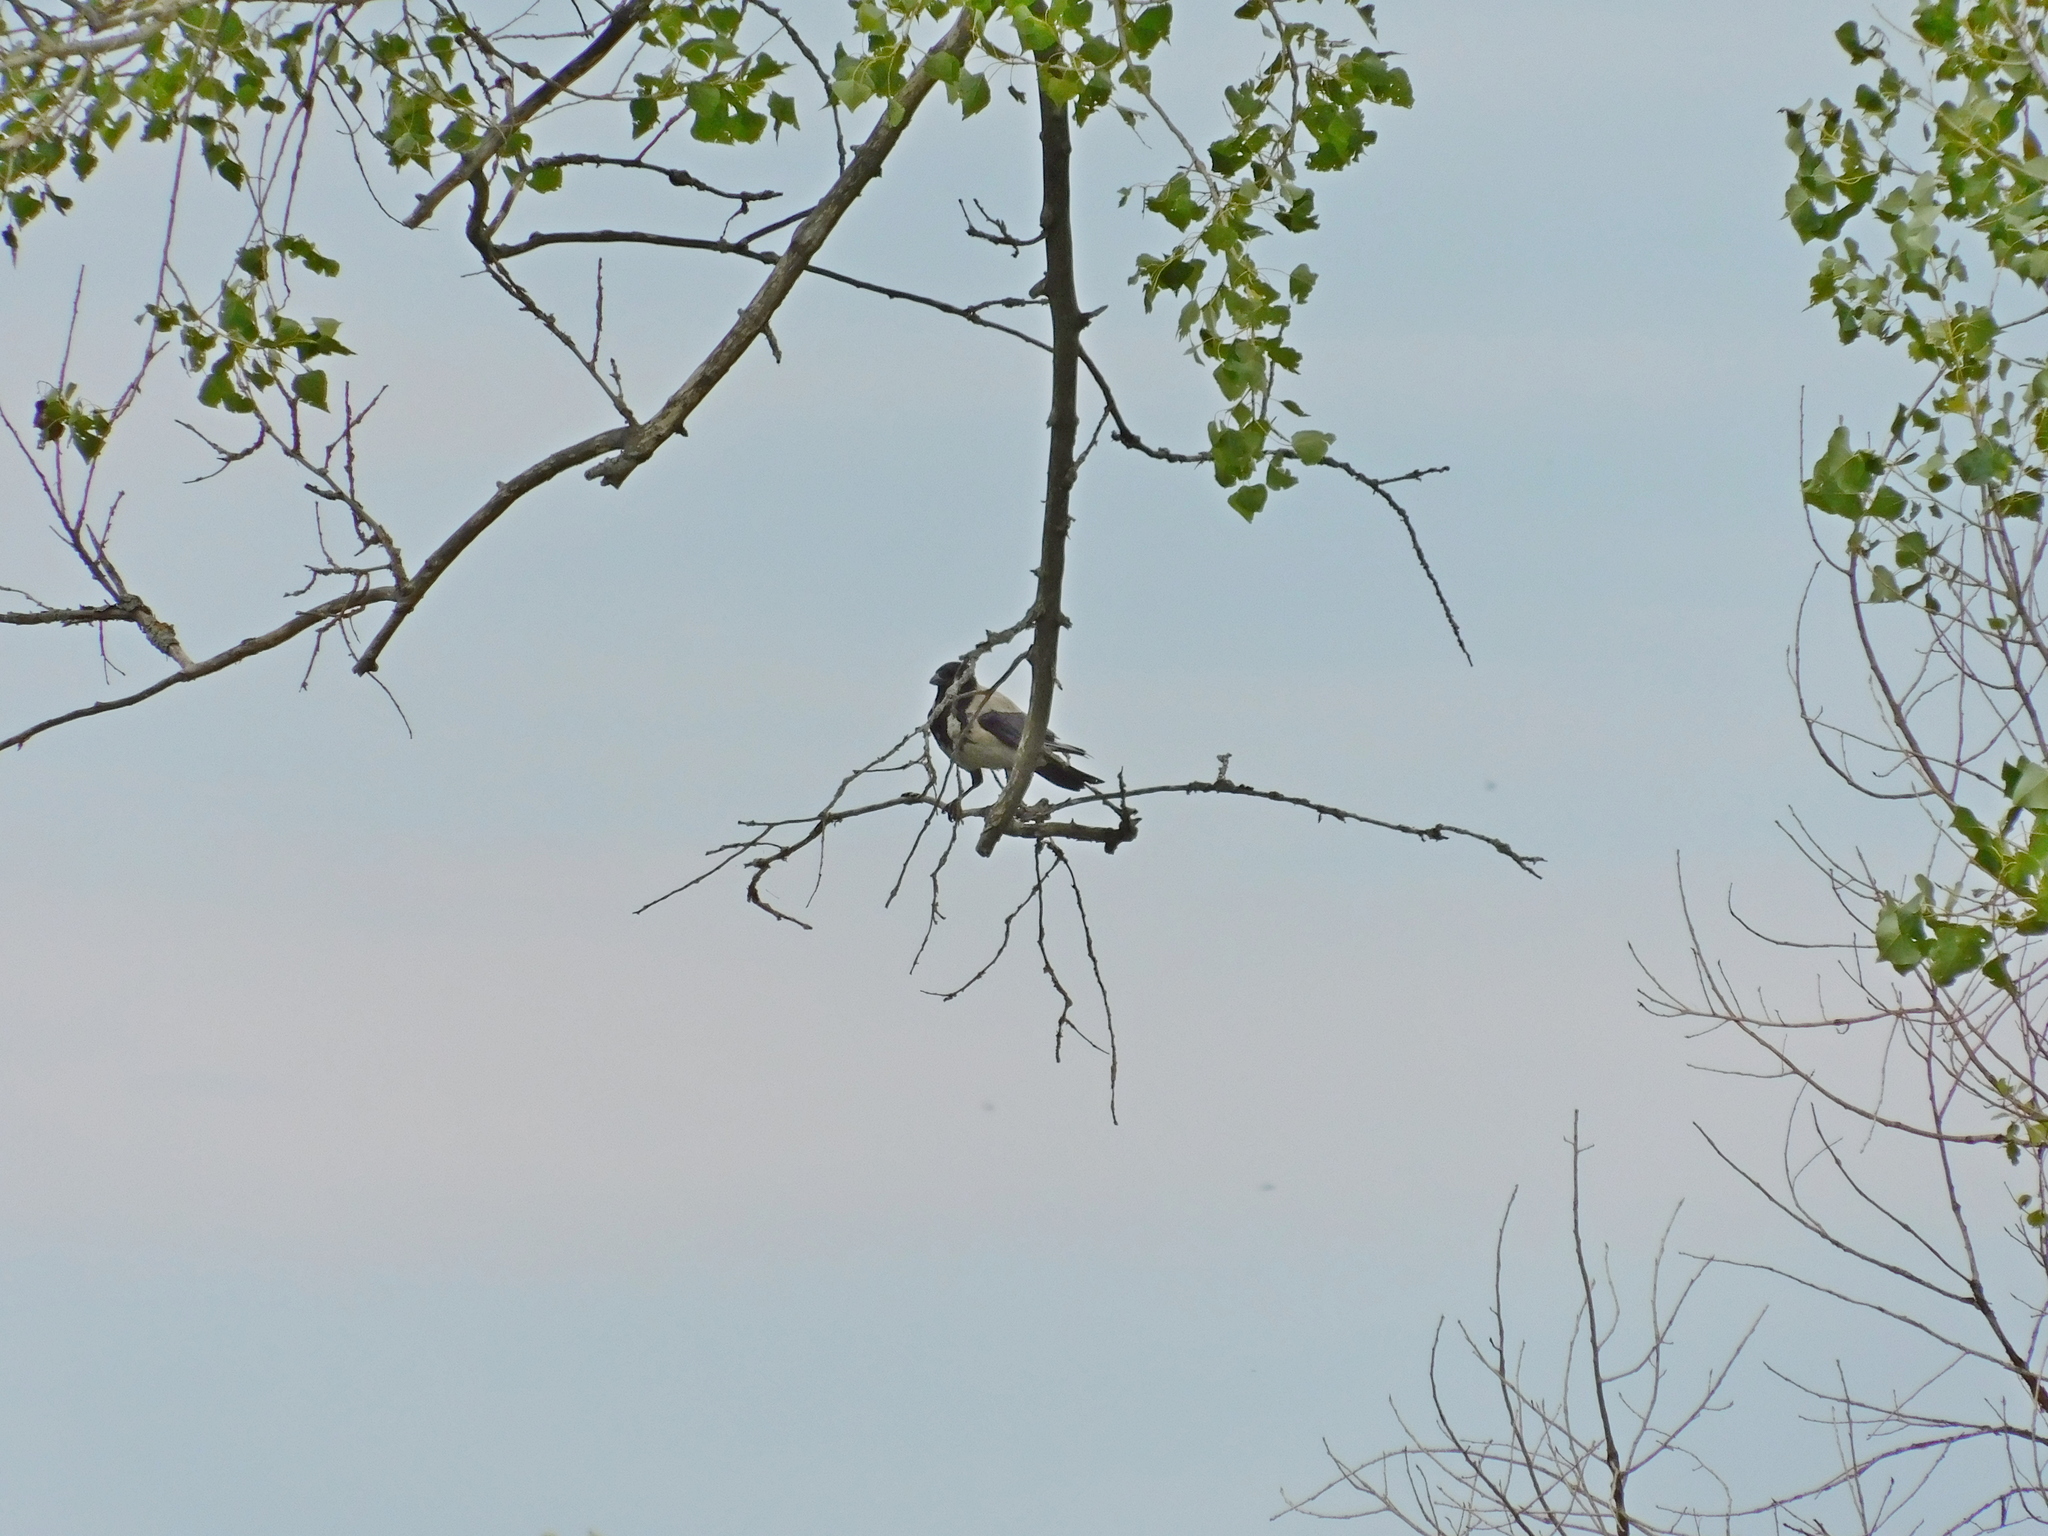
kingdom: Animalia
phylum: Chordata
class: Aves
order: Passeriformes
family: Corvidae
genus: Corvus
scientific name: Corvus cornix
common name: Hooded crow
